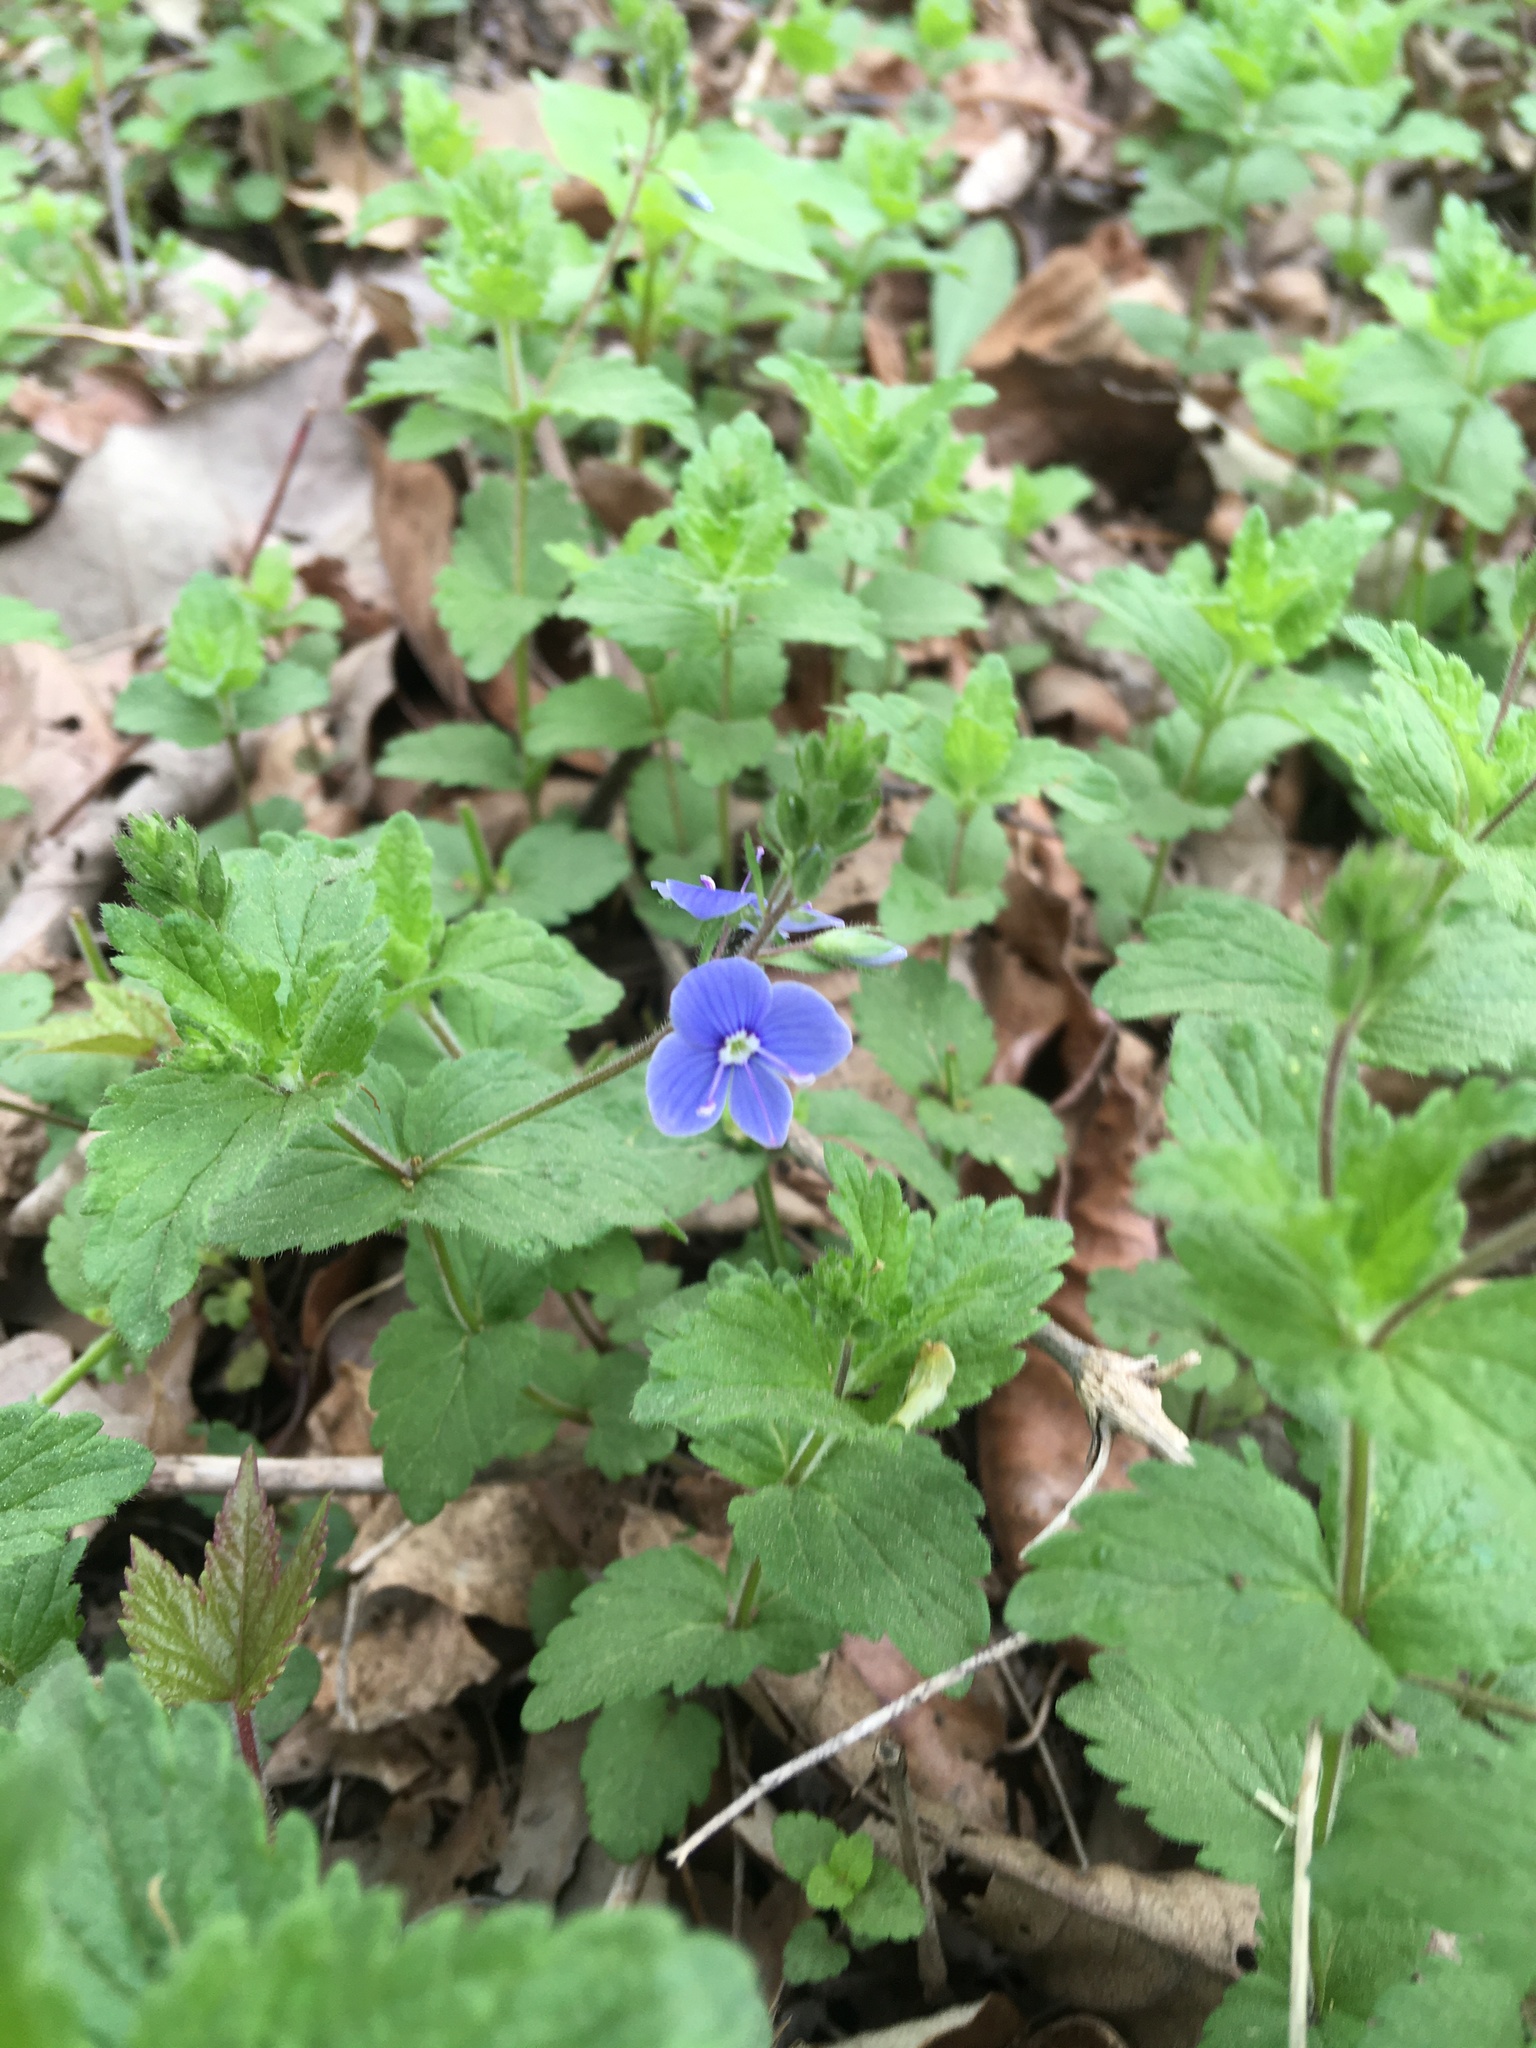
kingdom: Plantae
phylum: Tracheophyta
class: Magnoliopsida
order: Lamiales
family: Plantaginaceae
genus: Veronica
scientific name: Veronica chamaedrys
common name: Germander speedwell
